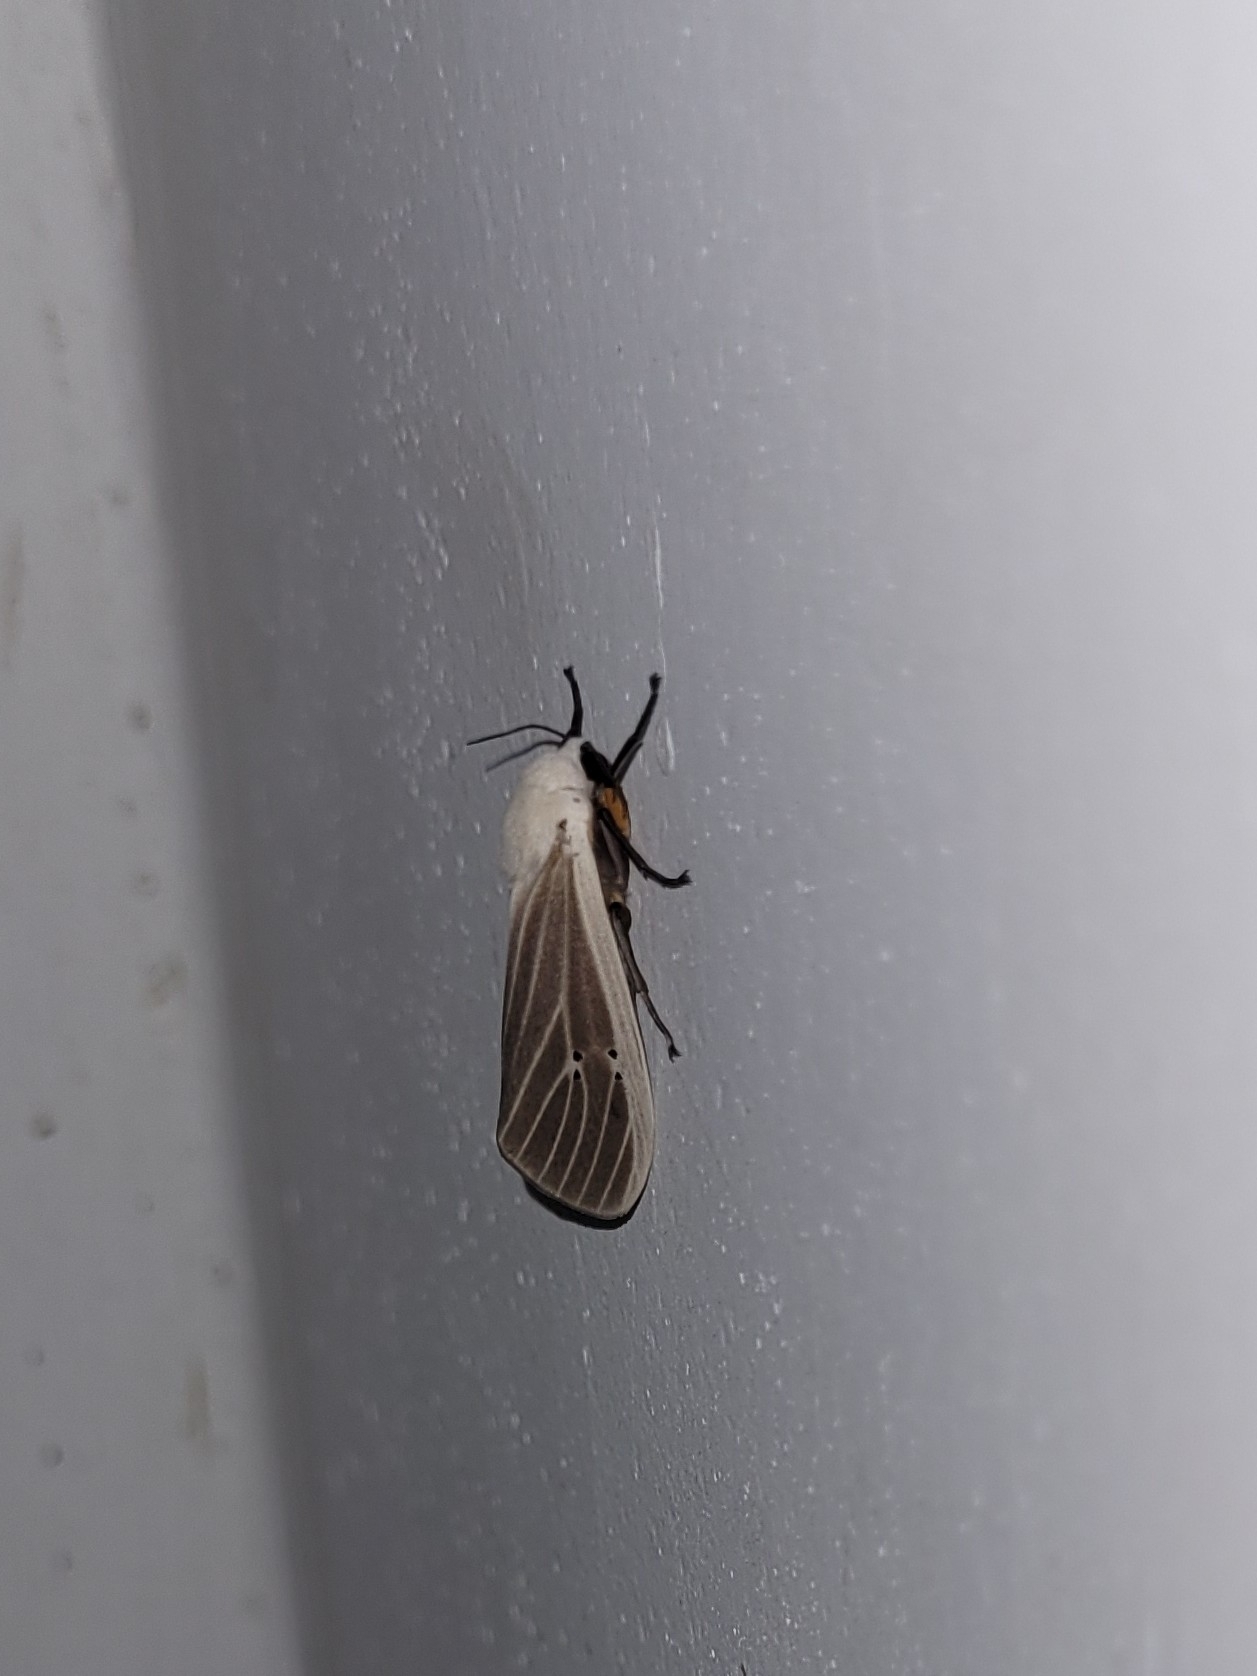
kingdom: Animalia
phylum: Arthropoda
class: Insecta
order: Lepidoptera
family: Erebidae
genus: Creatonotos
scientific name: Creatonotos transiens
